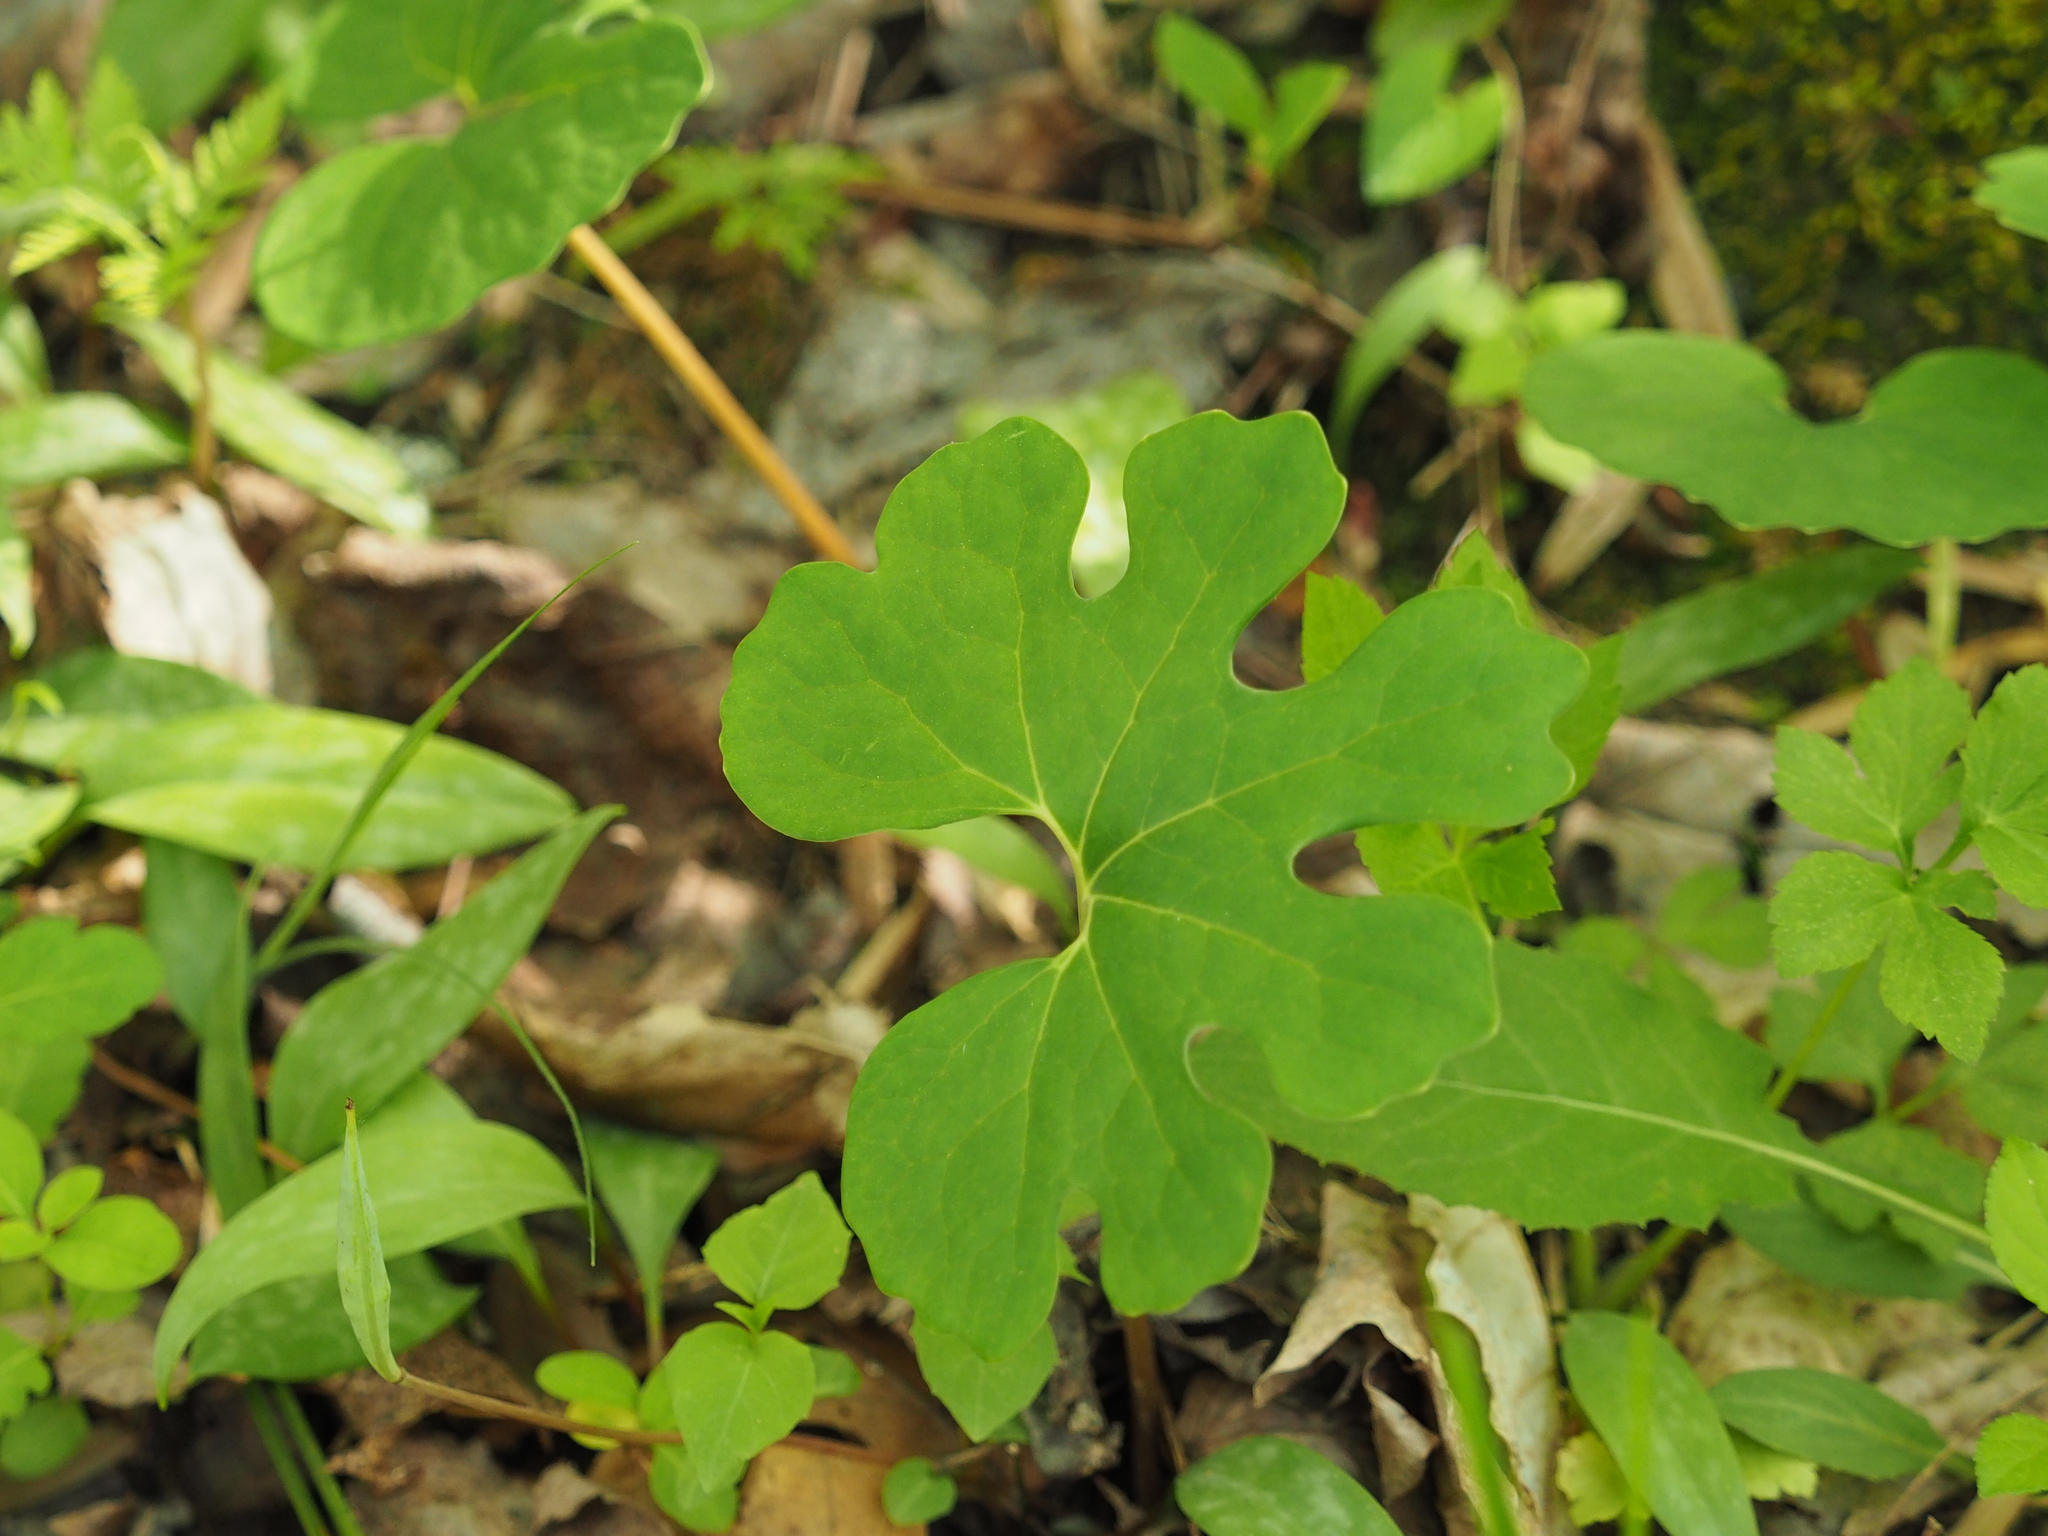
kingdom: Plantae
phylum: Tracheophyta
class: Magnoliopsida
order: Ranunculales
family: Papaveraceae
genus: Sanguinaria
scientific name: Sanguinaria canadensis
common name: Bloodroot
